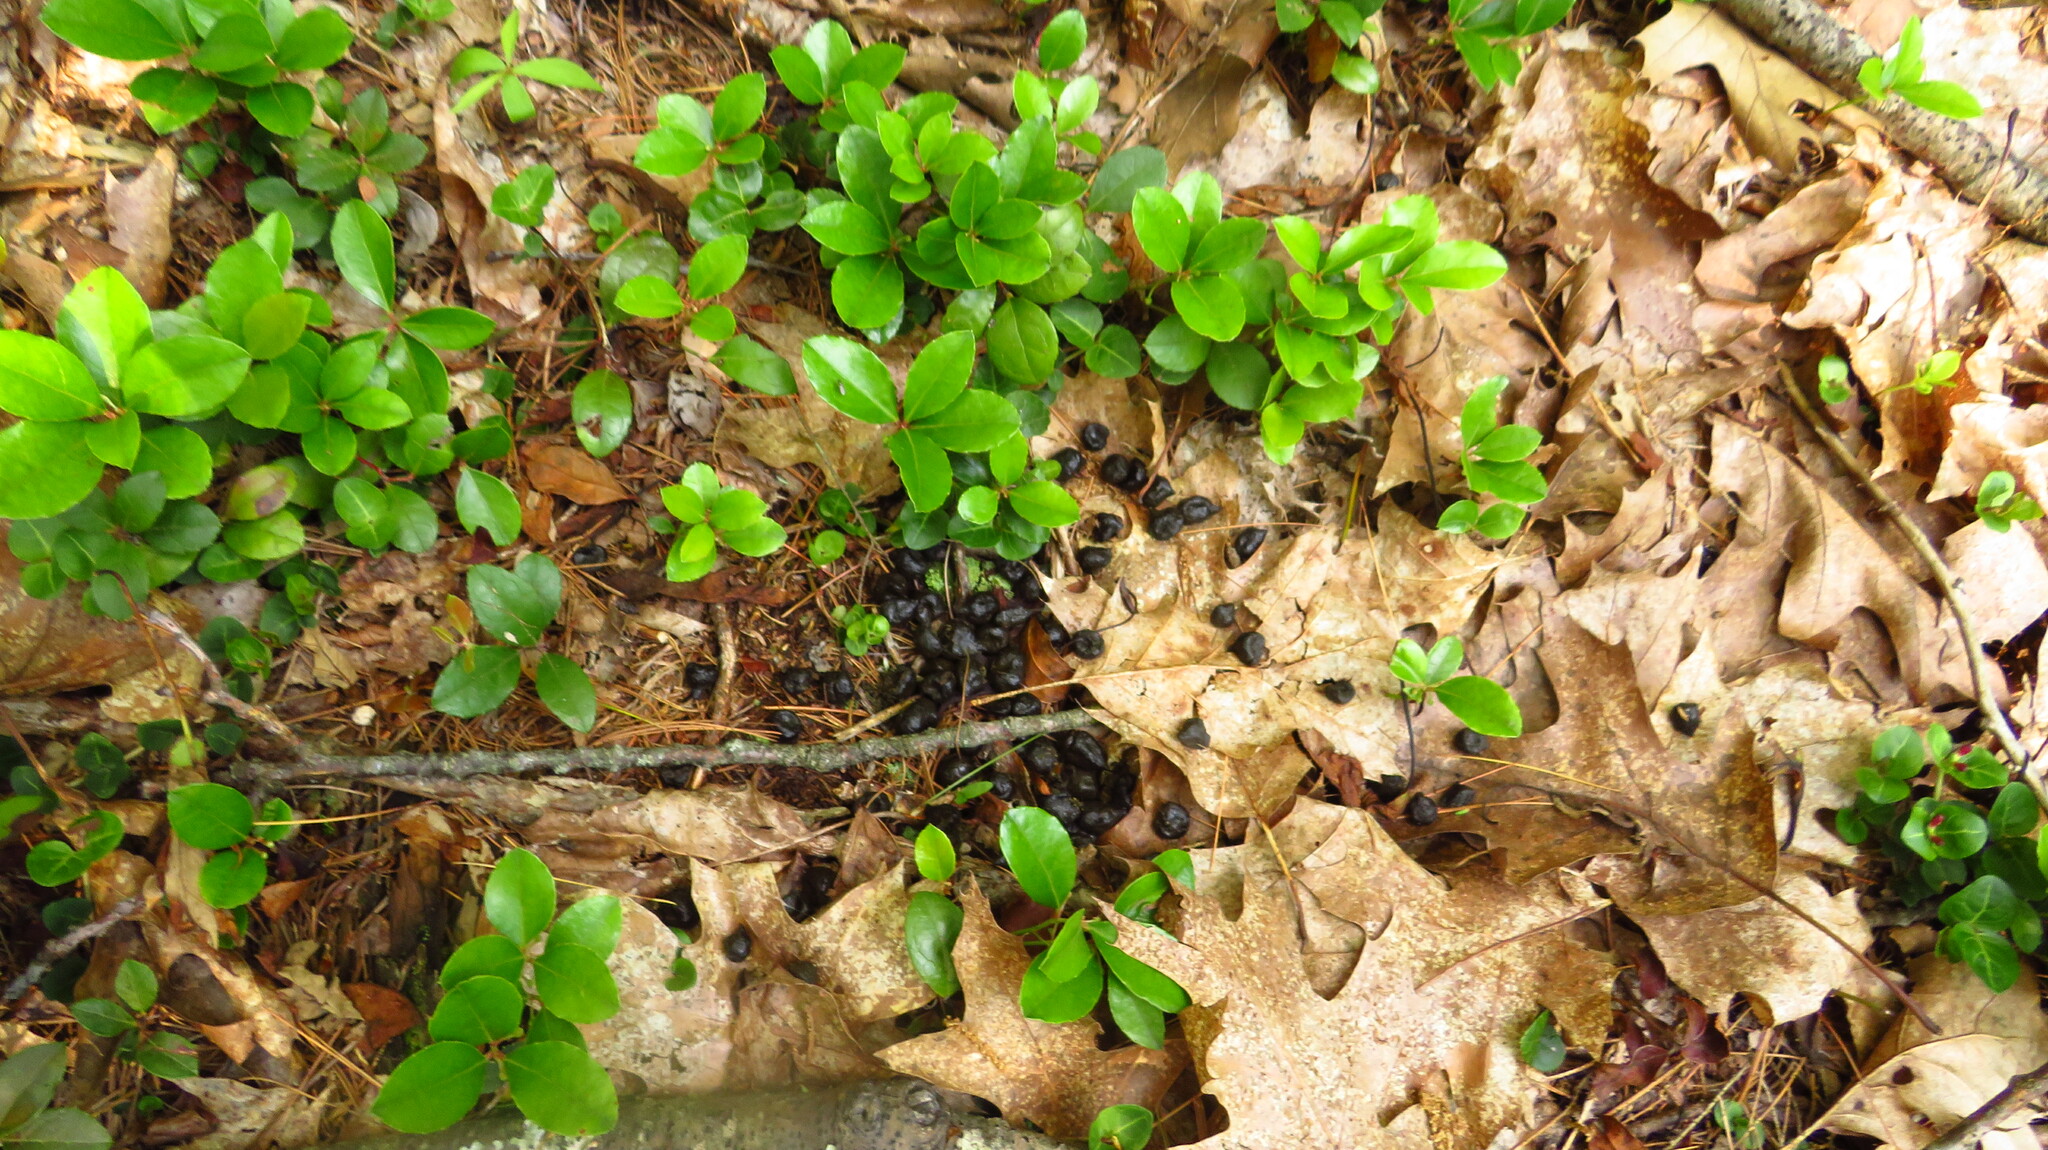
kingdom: Plantae
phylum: Tracheophyta
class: Magnoliopsida
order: Ericales
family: Ericaceae
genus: Gaultheria
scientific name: Gaultheria procumbens
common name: Checkerberry
